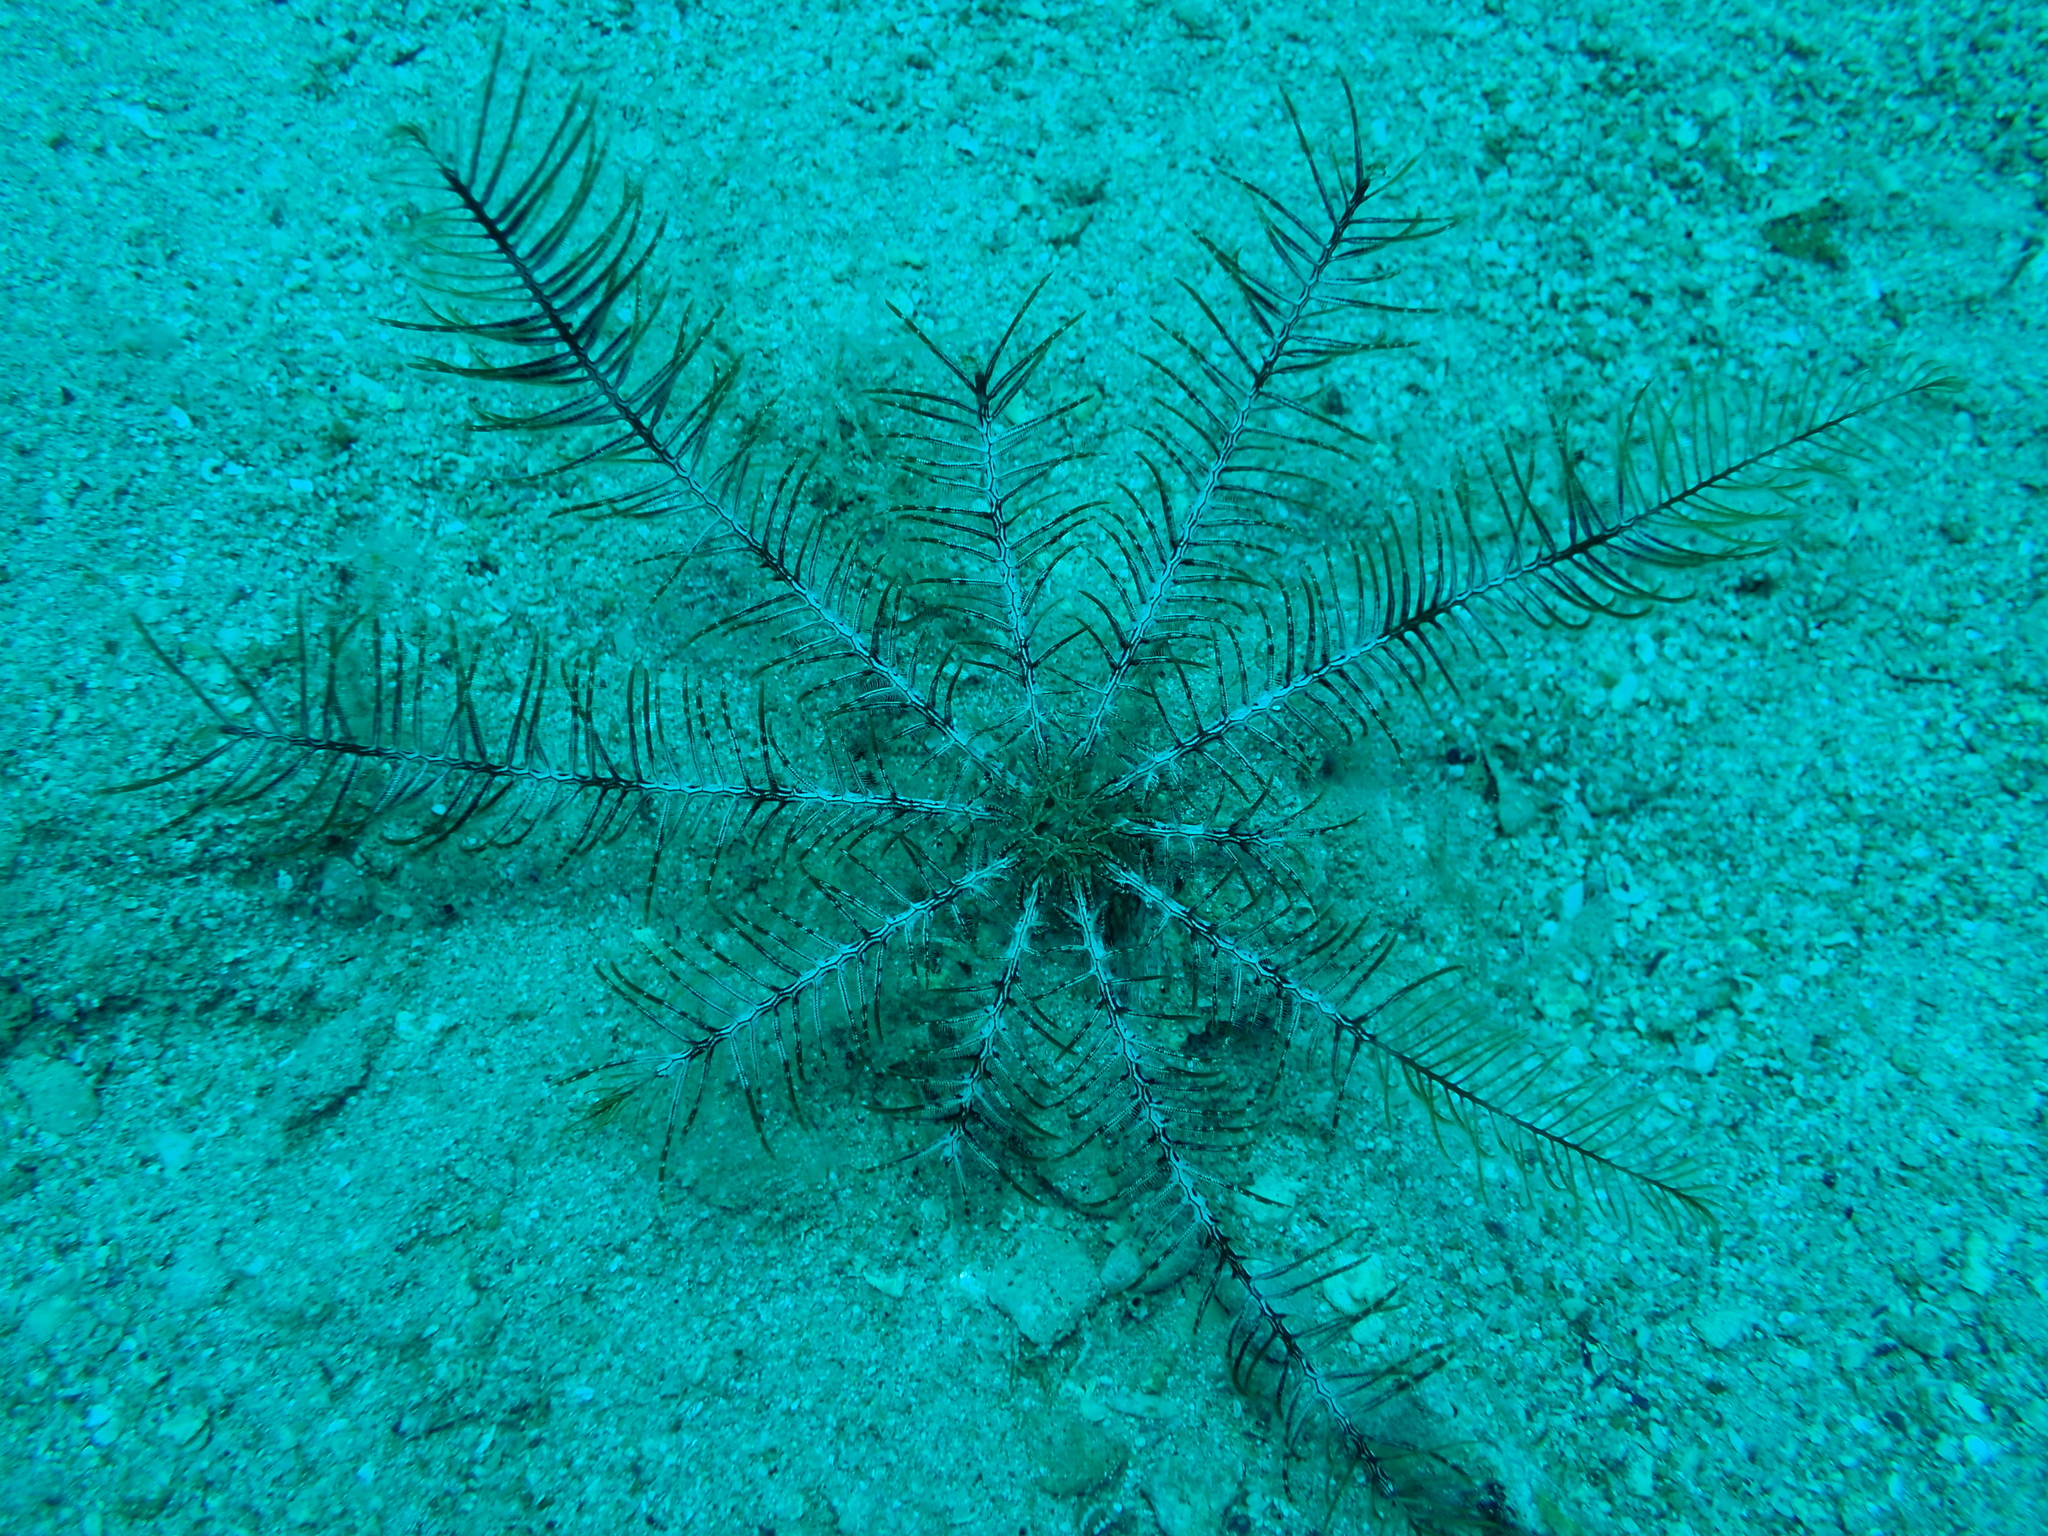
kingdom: Animalia
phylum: Echinodermata
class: Crinoidea
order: Comatulida
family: Antedonidae
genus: Antedon
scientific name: Antedon mediterranea
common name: Feather star
